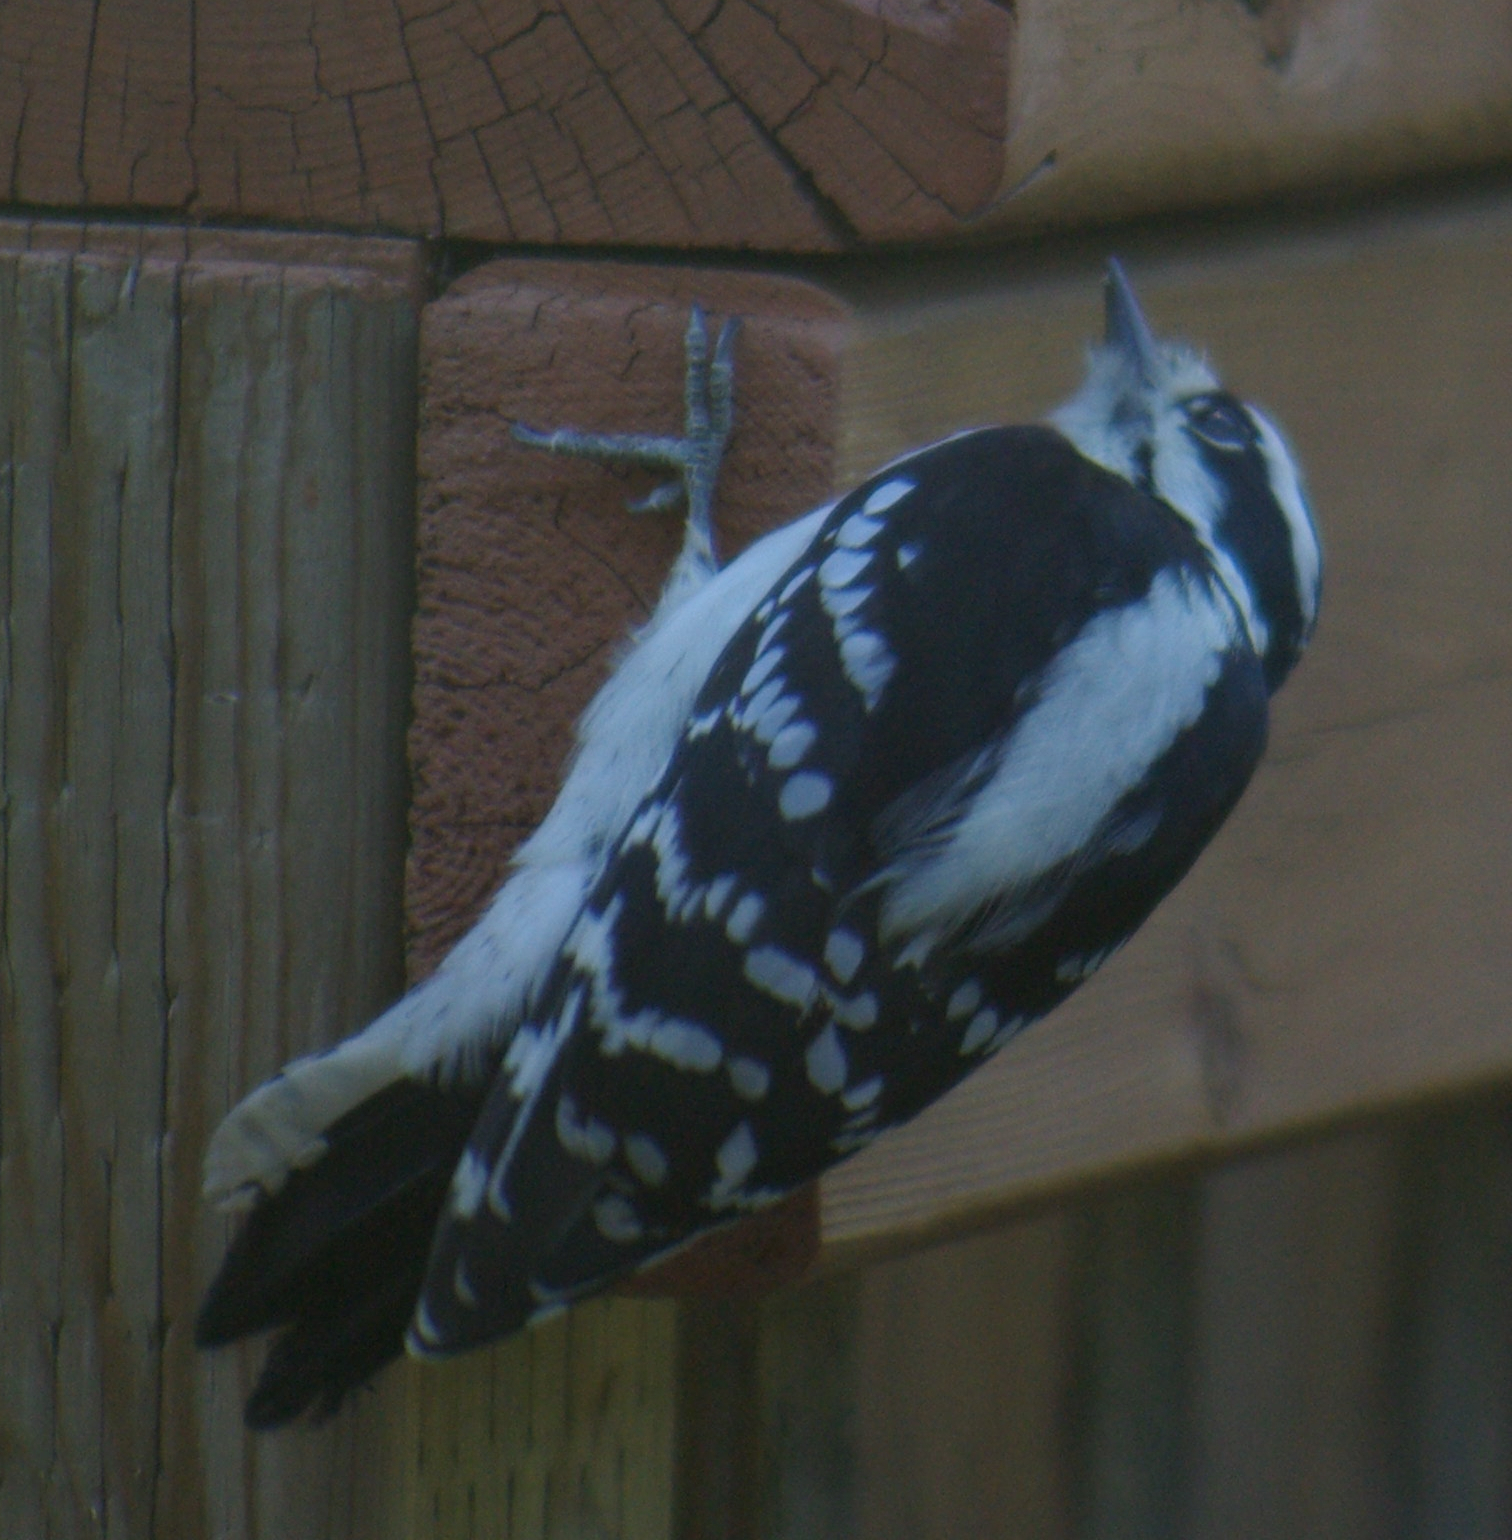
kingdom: Animalia
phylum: Chordata
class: Aves
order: Piciformes
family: Picidae
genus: Dryobates
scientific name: Dryobates pubescens
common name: Downy woodpecker
